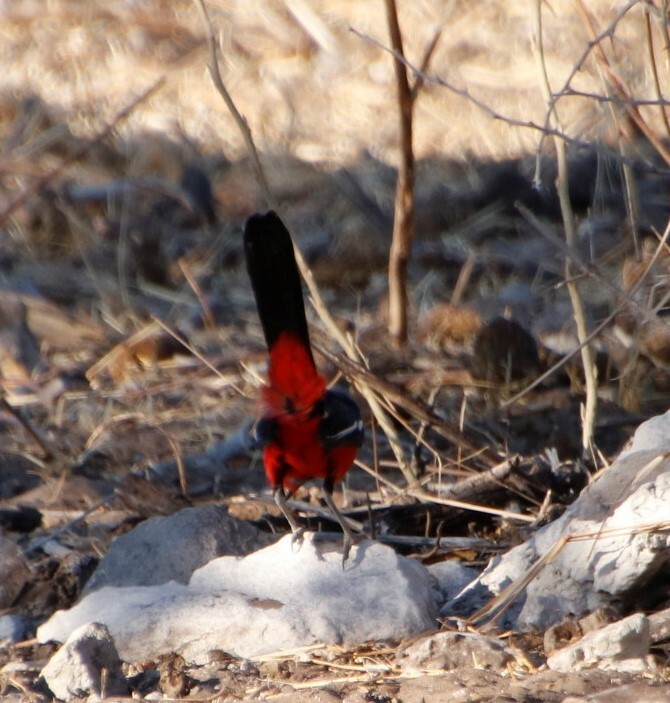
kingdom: Animalia
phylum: Chordata
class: Aves
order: Passeriformes
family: Malaconotidae
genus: Laniarius
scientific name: Laniarius atrococcineus
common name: Crimson-breasted shrike
